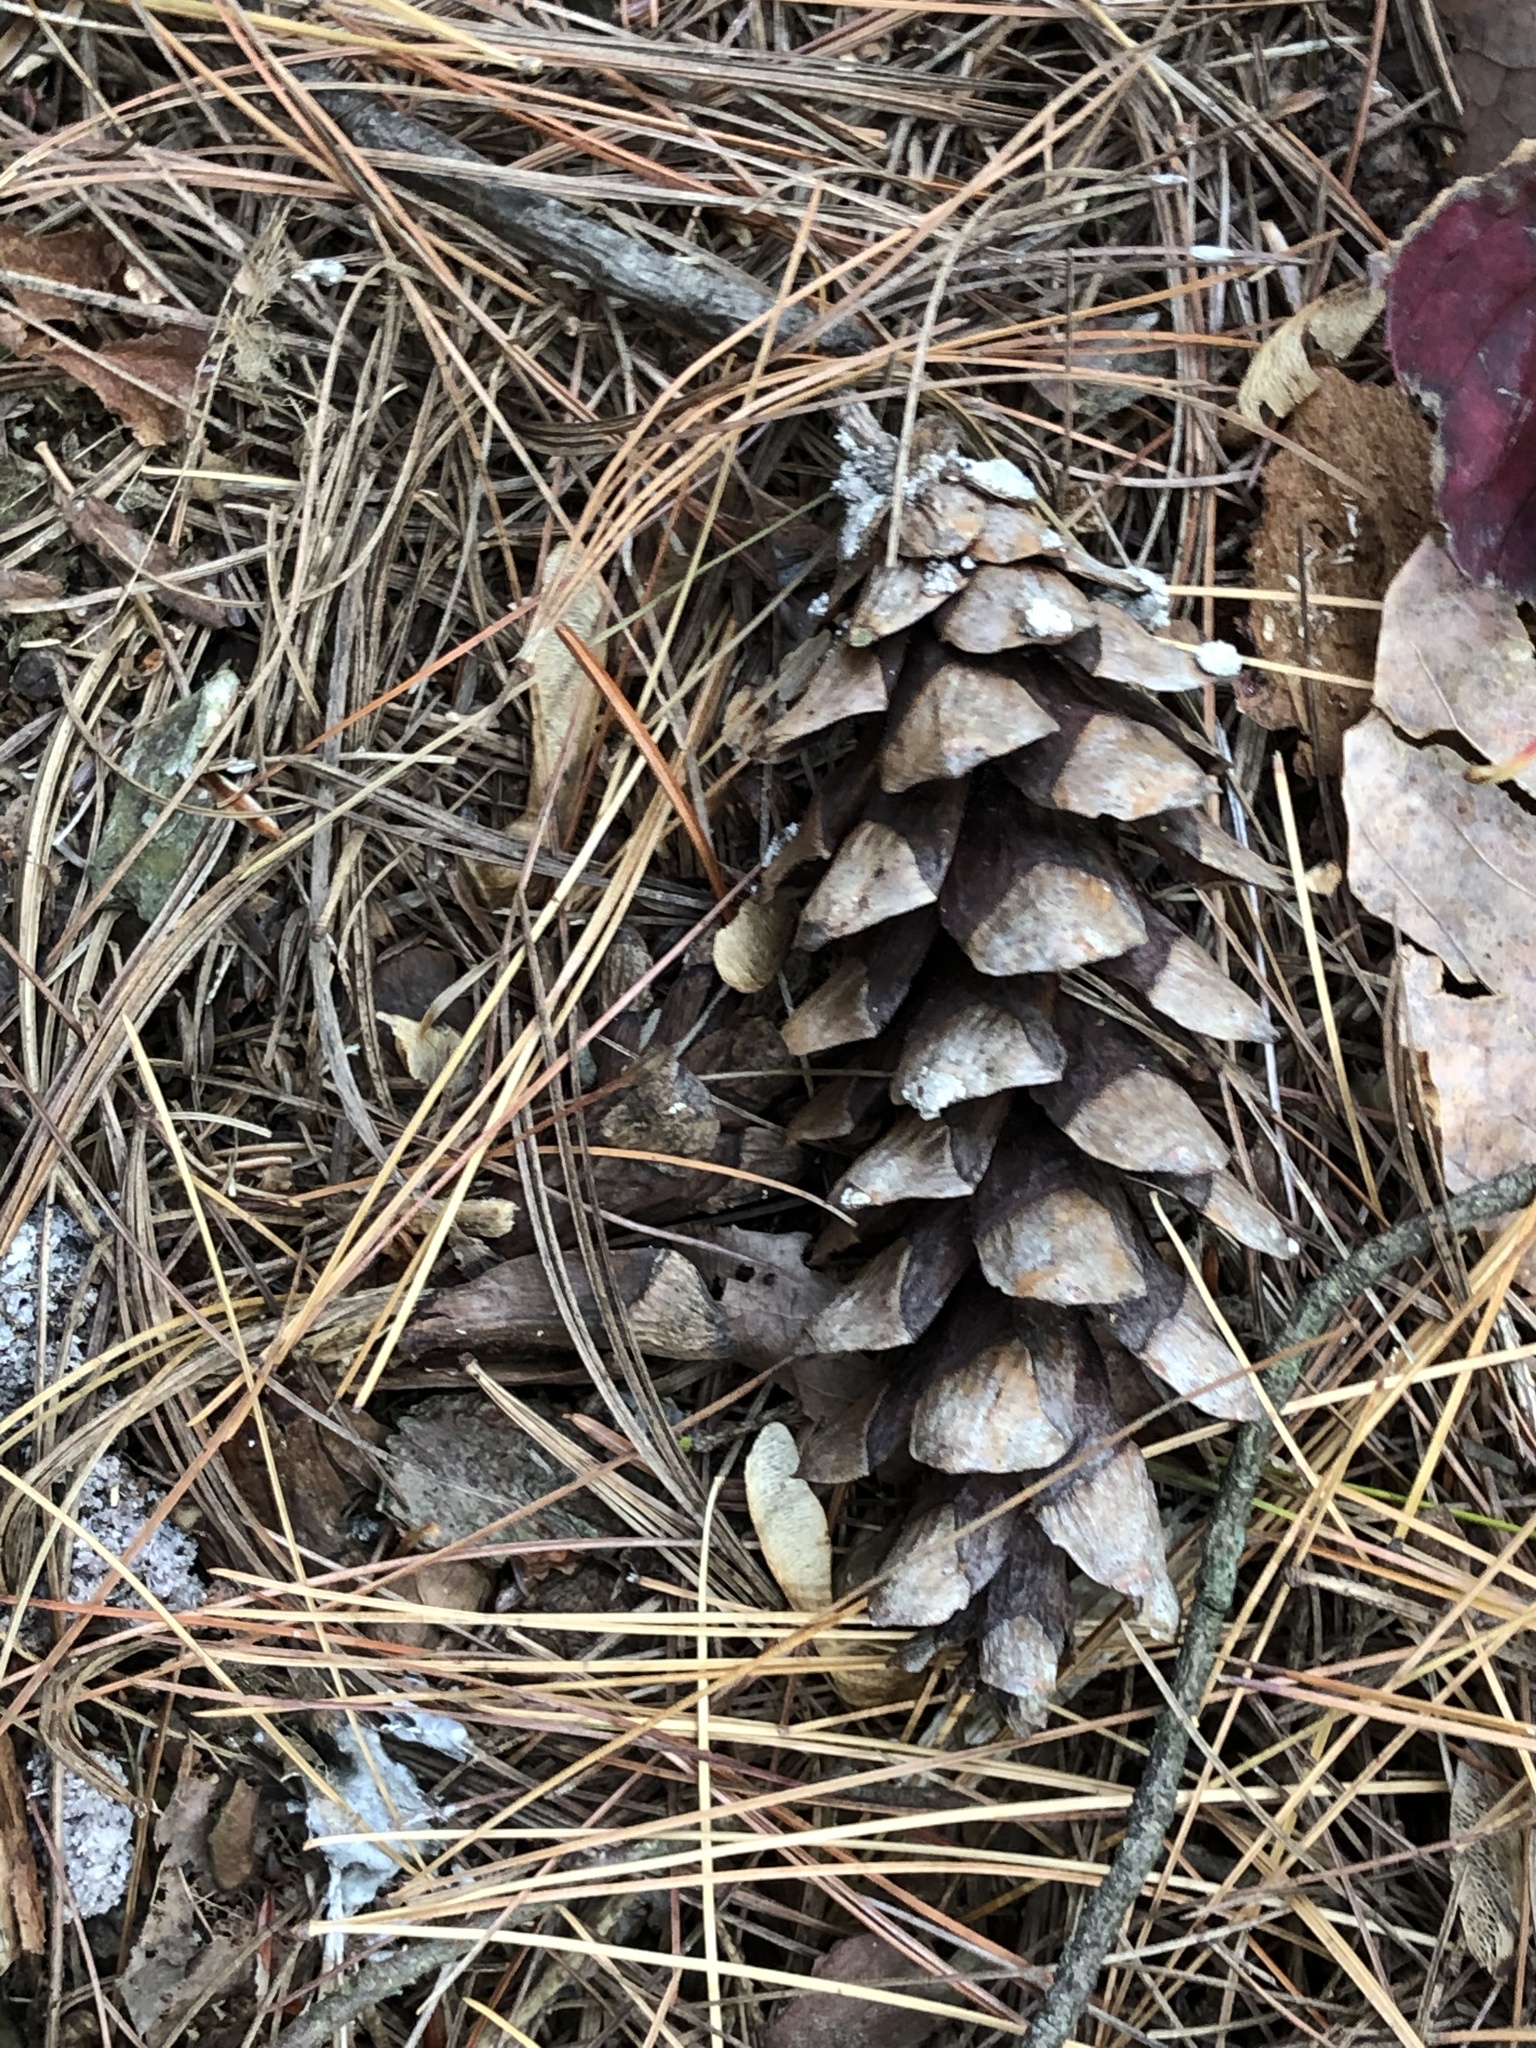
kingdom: Plantae
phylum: Tracheophyta
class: Pinopsida
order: Pinales
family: Pinaceae
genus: Pinus
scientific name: Pinus strobus
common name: Weymouth pine
